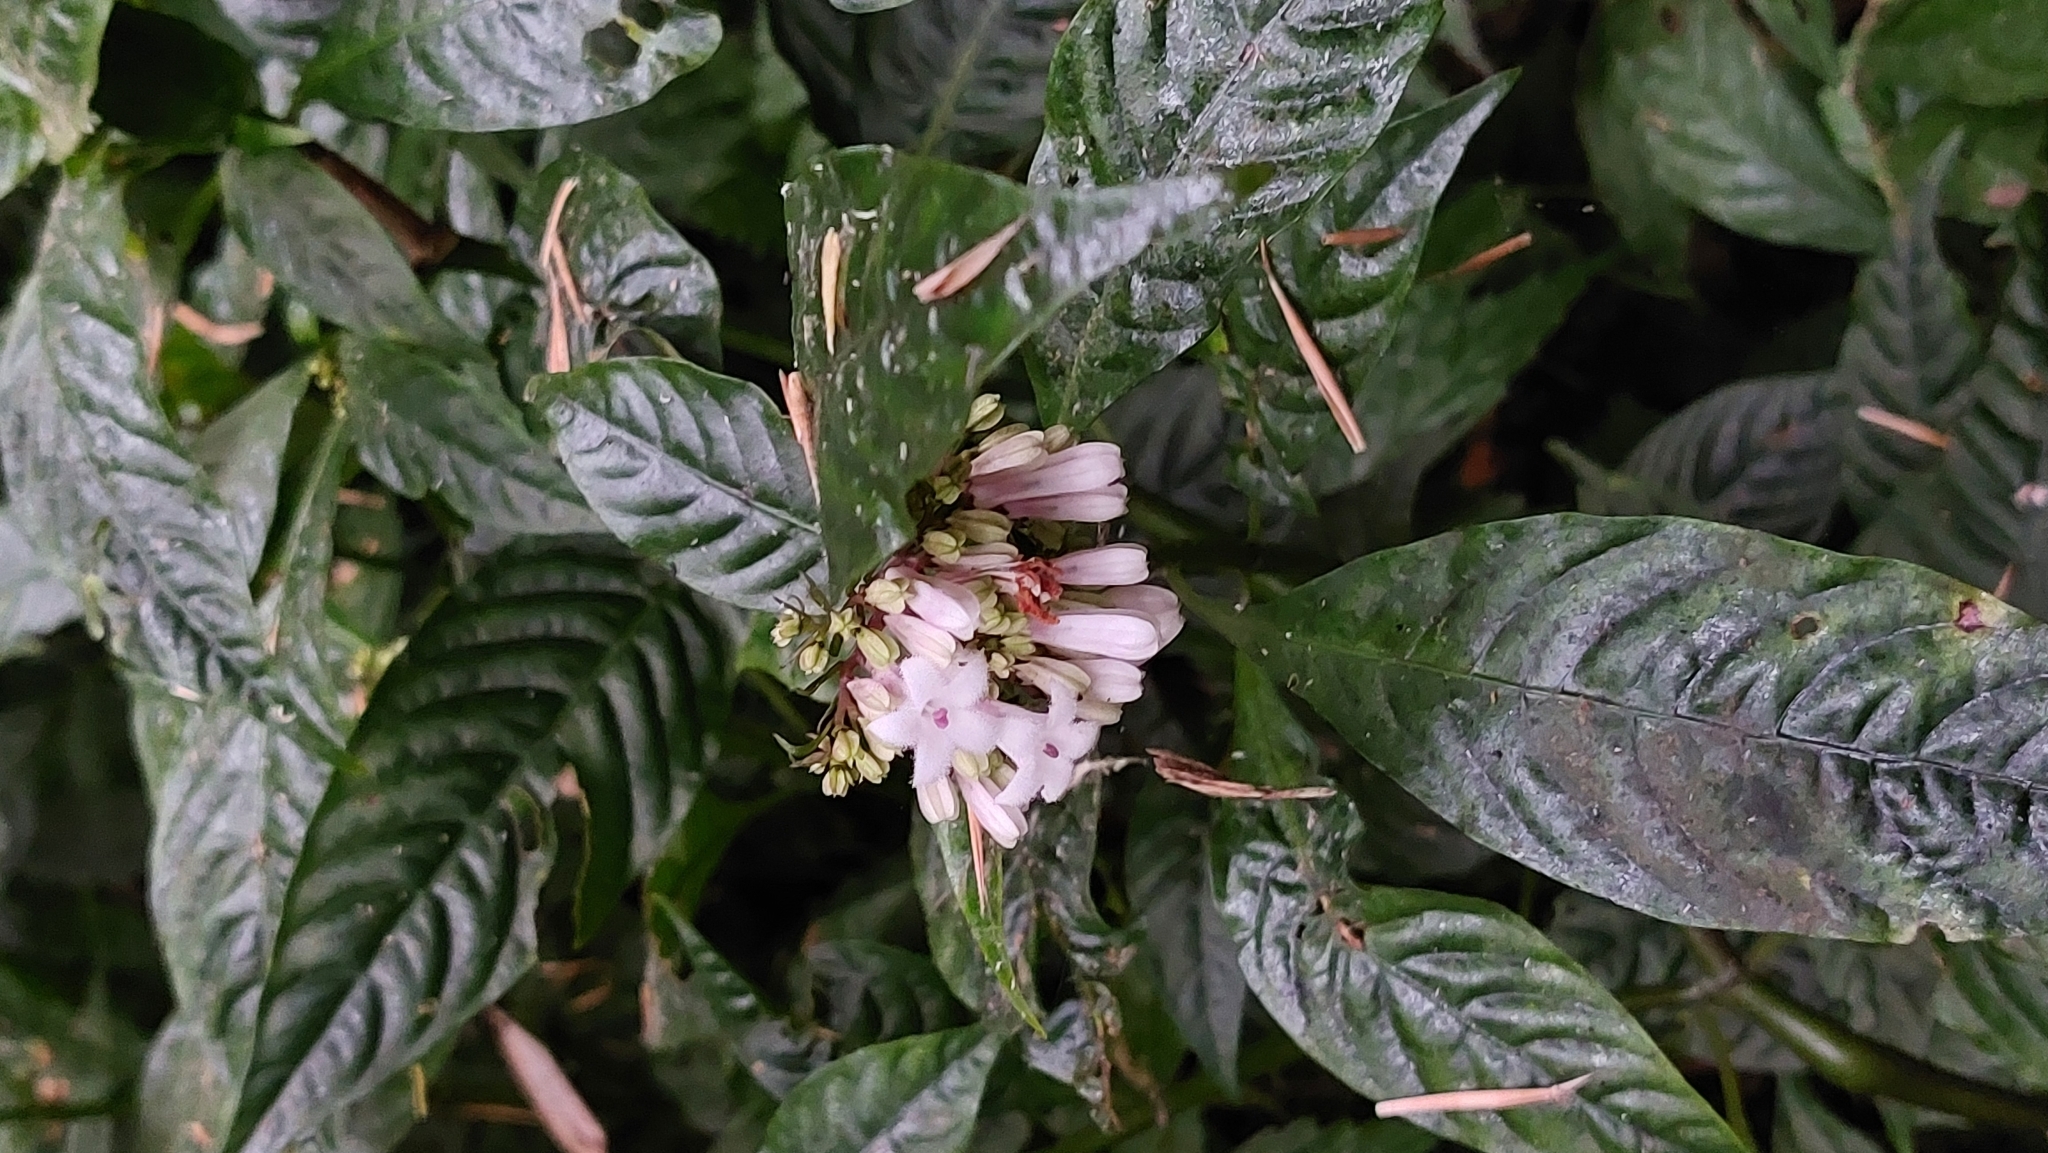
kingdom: Plantae
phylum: Tracheophyta
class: Magnoliopsida
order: Gentianales
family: Rubiaceae
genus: Ophiorrhiza
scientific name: Ophiorrhiza japonica
